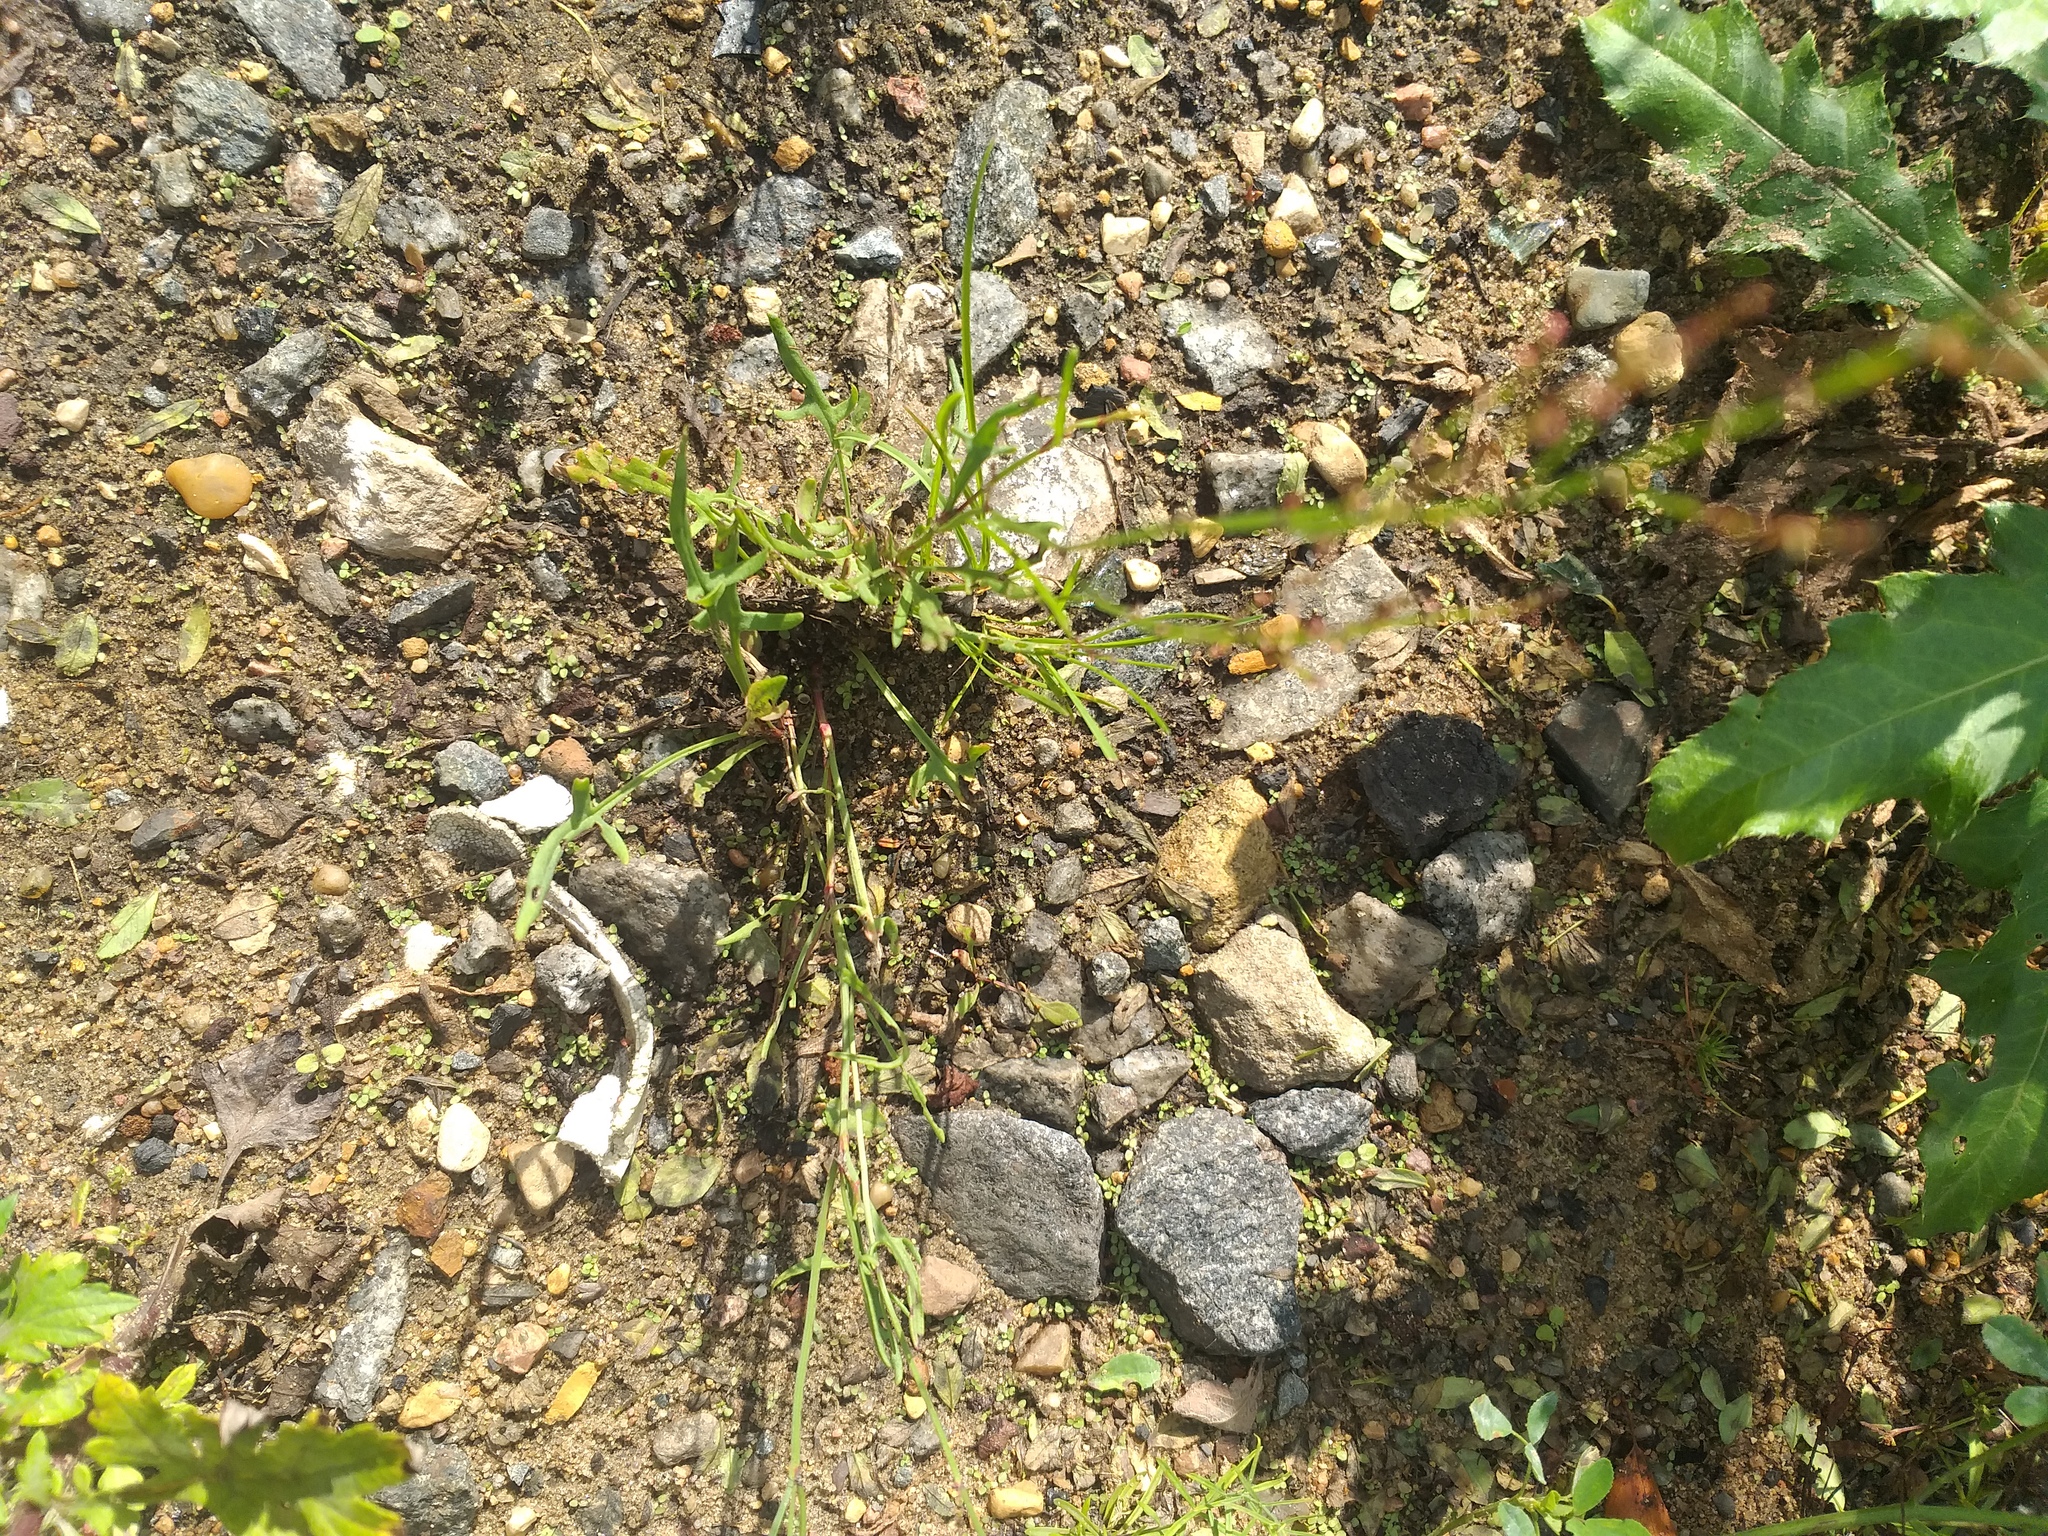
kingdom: Plantae
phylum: Tracheophyta
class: Magnoliopsida
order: Caryophyllales
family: Polygonaceae
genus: Rumex
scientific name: Rumex acetosella
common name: Common sheep sorrel
